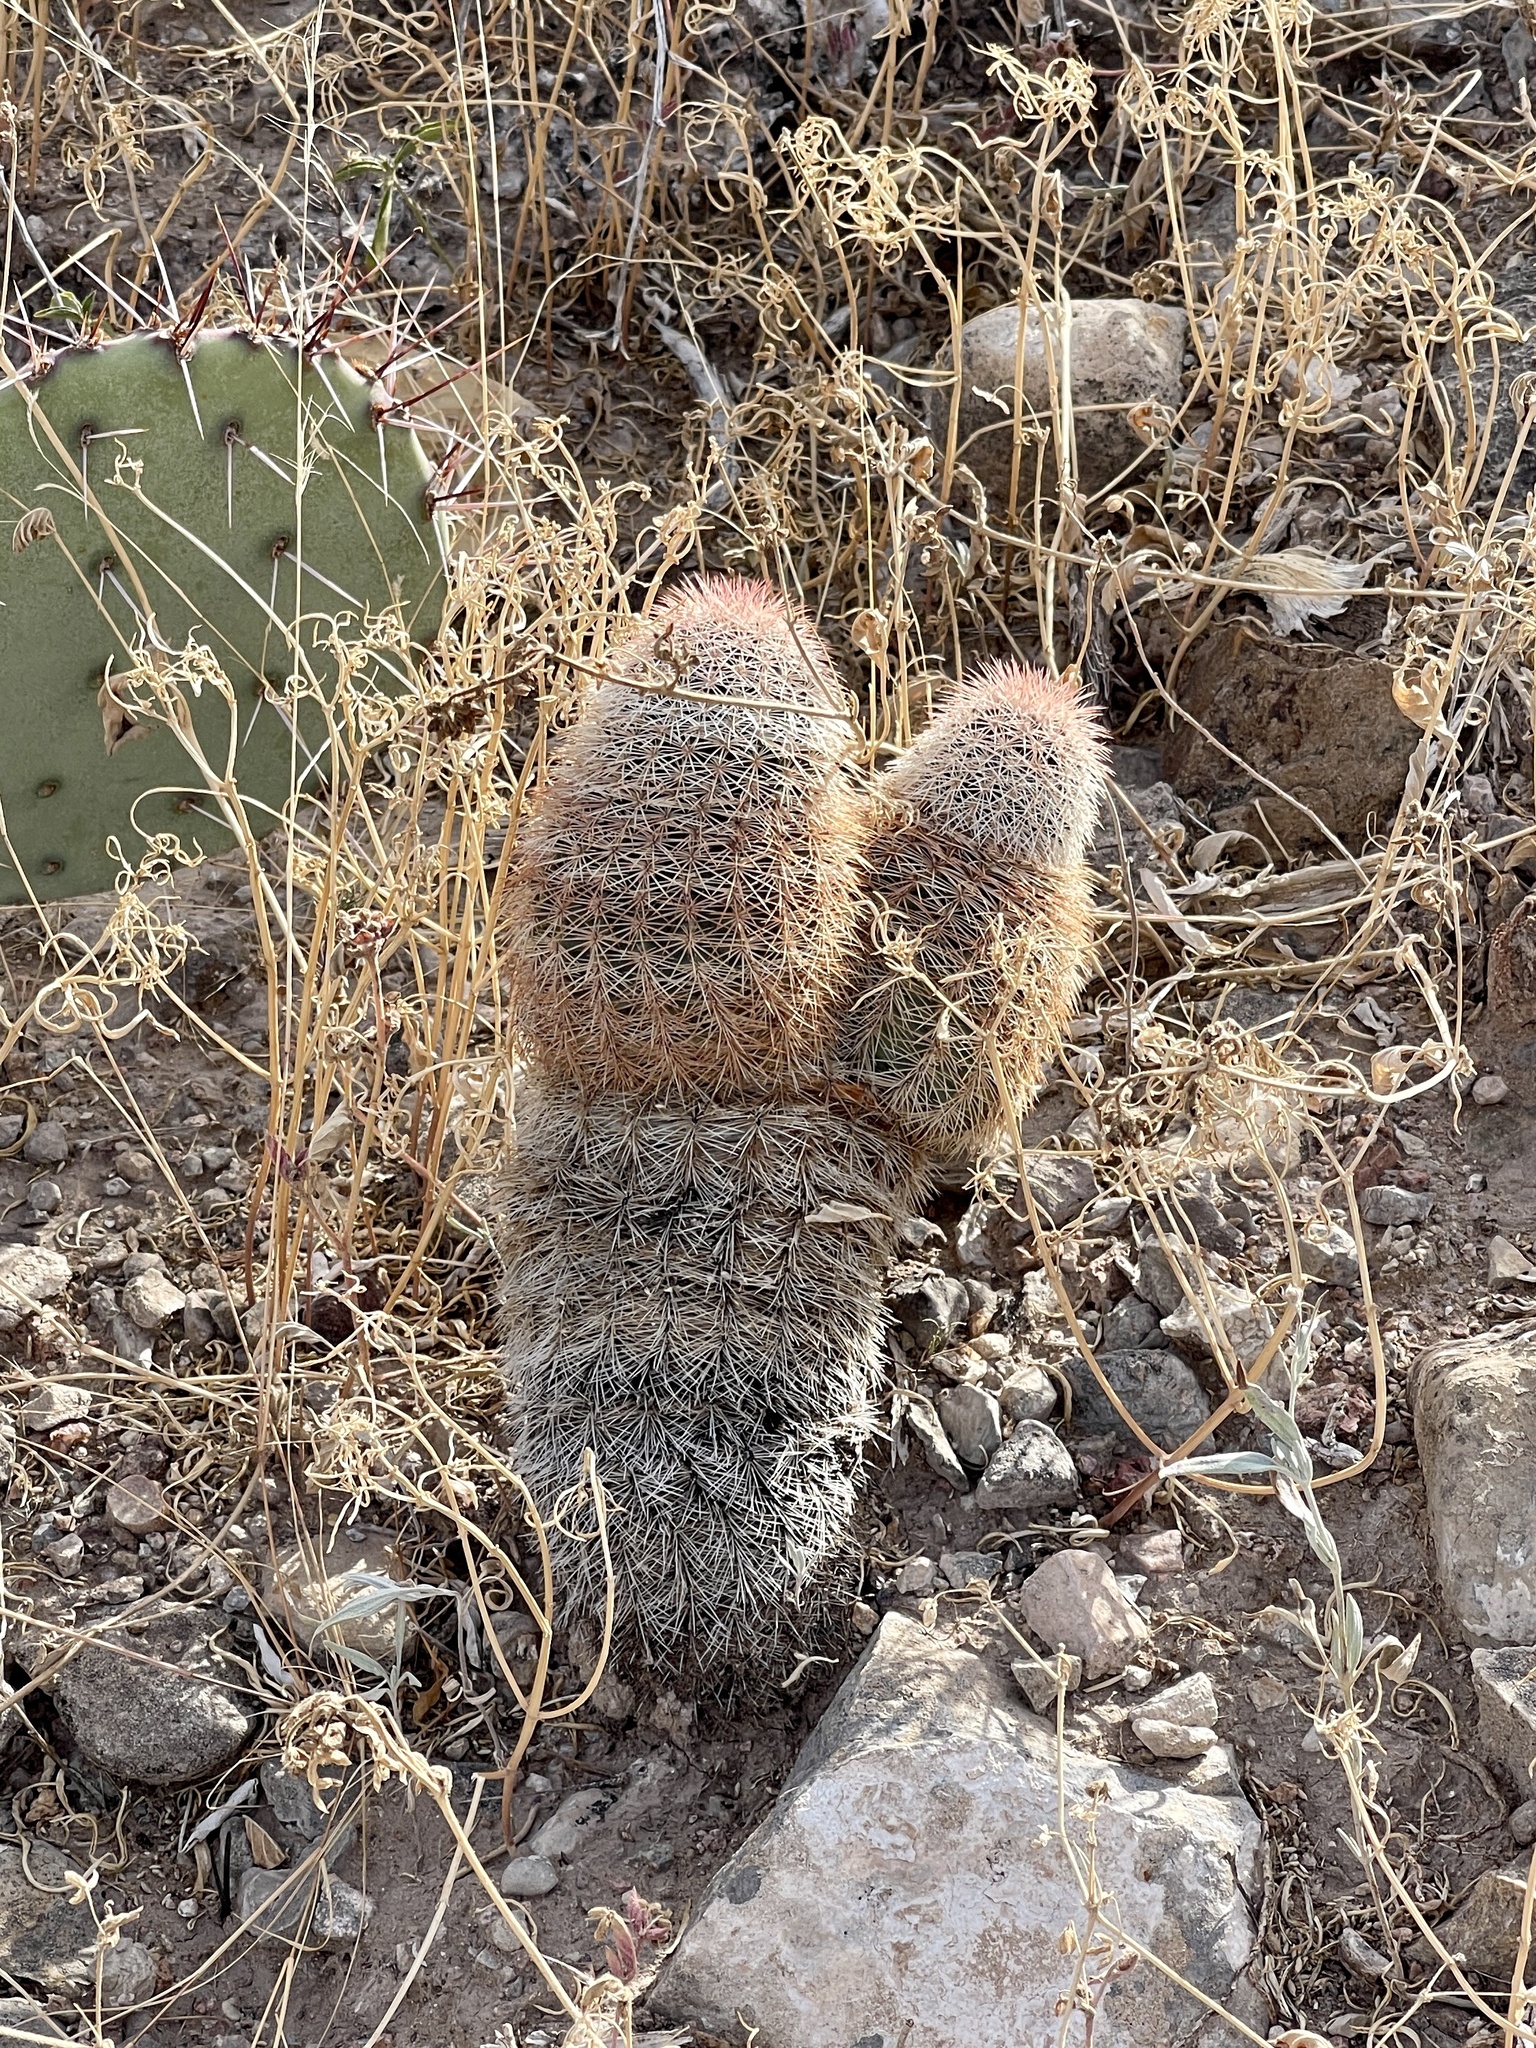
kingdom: Plantae
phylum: Tracheophyta
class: Magnoliopsida
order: Caryophyllales
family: Cactaceae
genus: Echinocereus
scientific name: Echinocereus dasyacanthus
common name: Spiny hedgehog cactus
